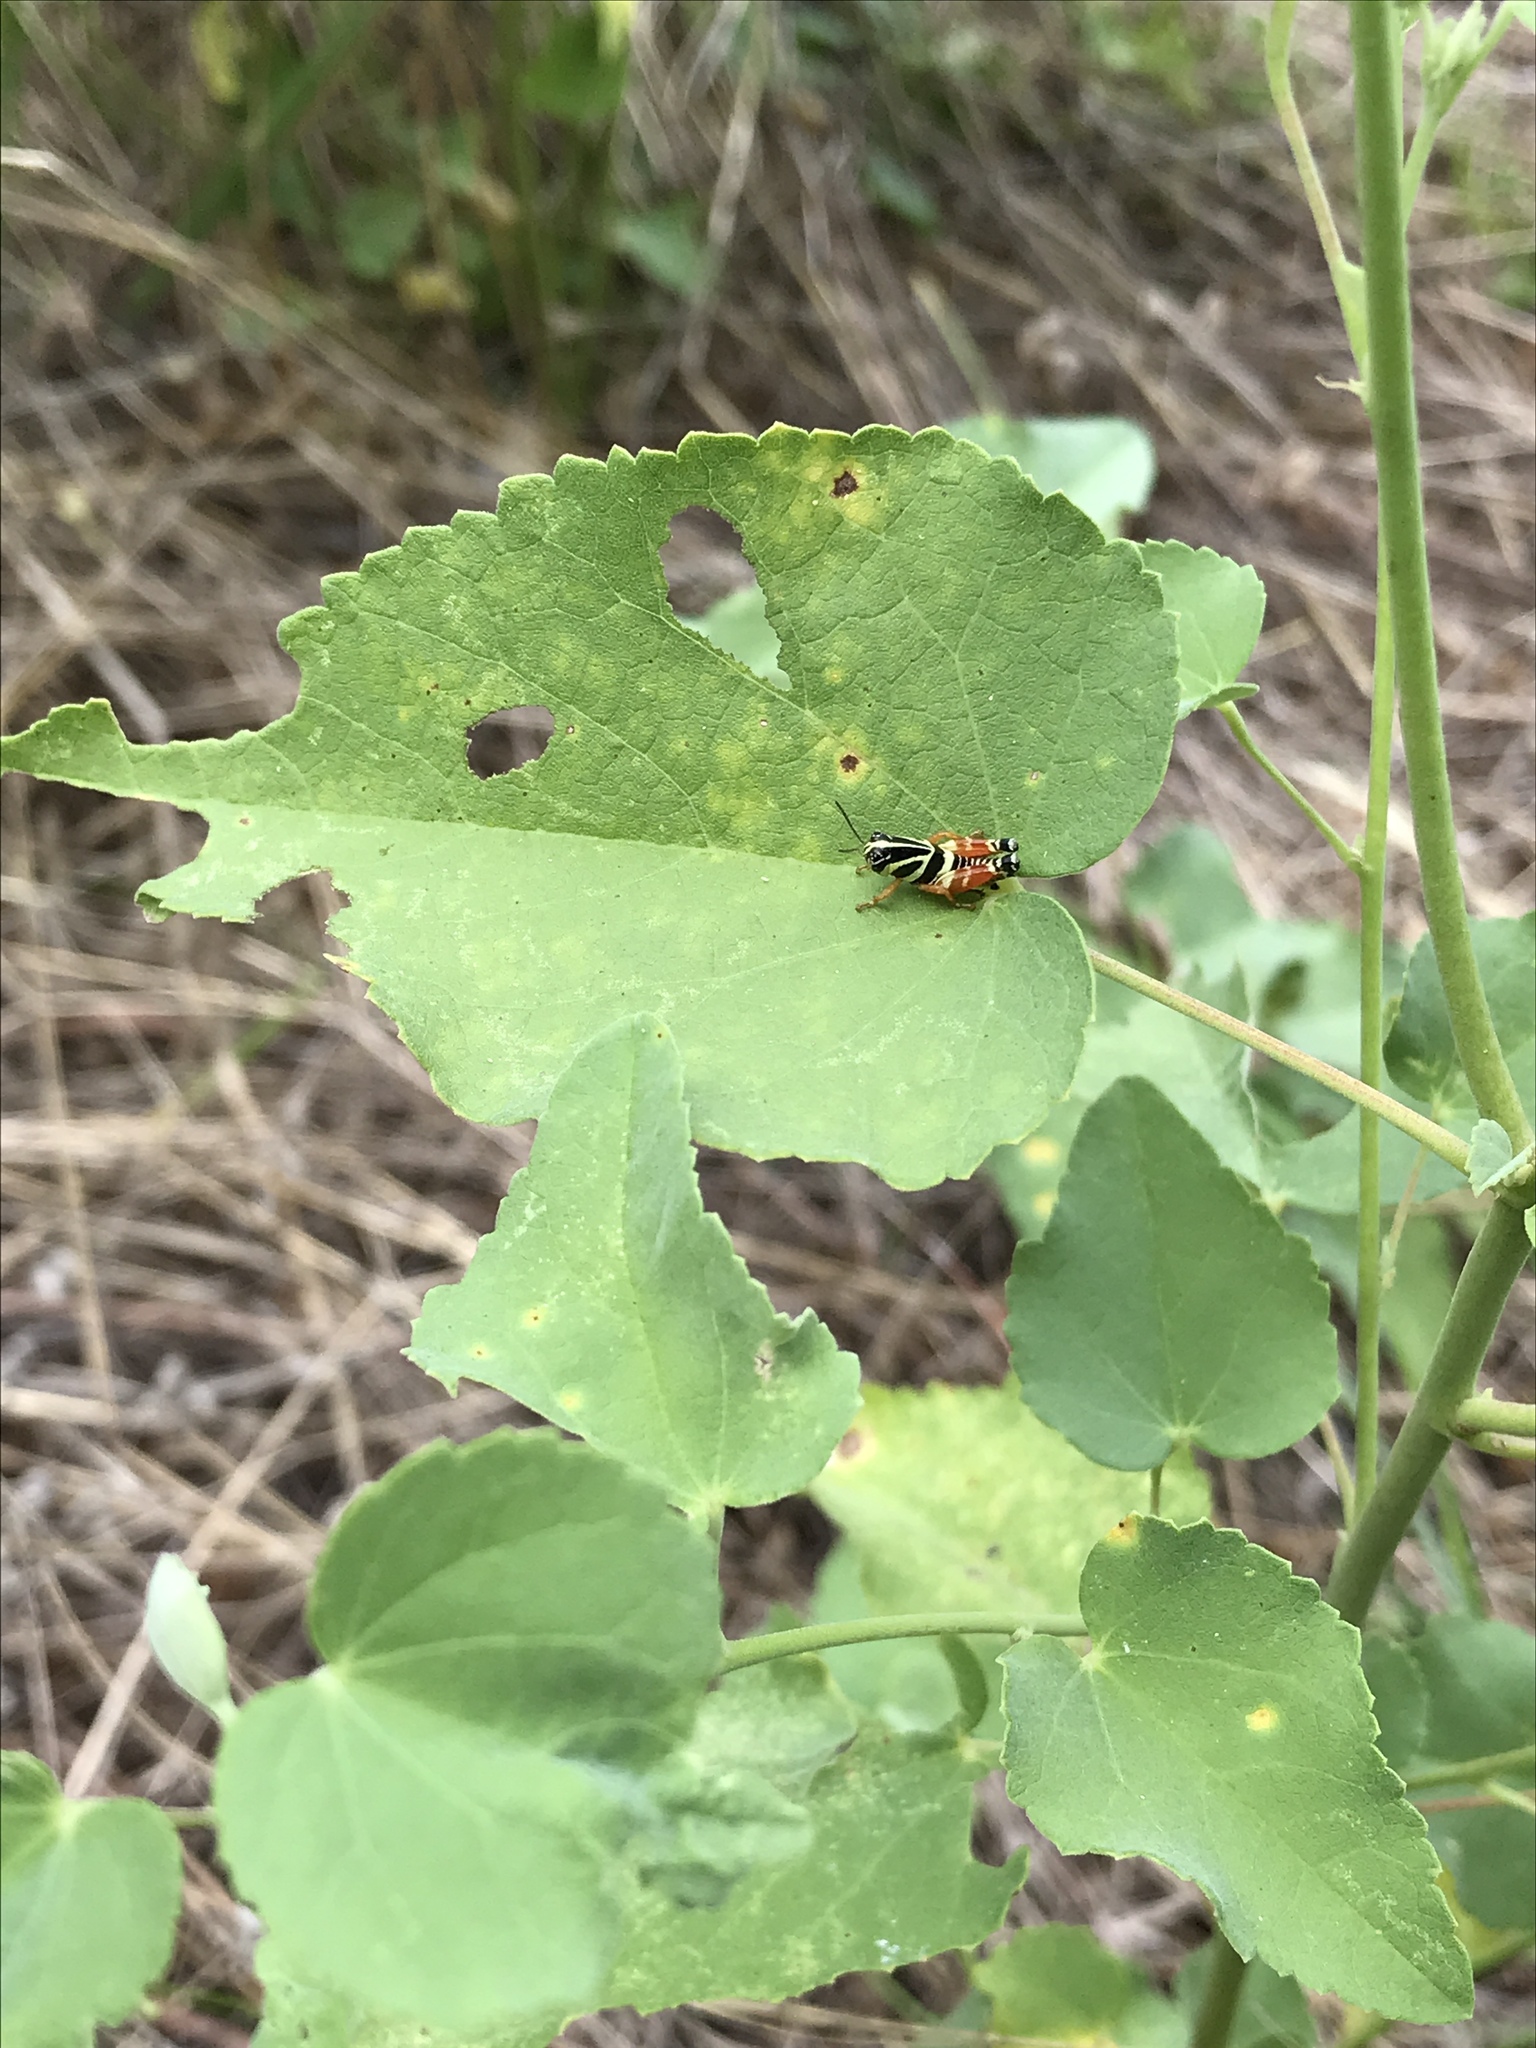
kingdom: Animalia
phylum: Arthropoda
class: Insecta
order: Orthoptera
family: Acrididae
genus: Aidemona
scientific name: Aidemona azteca
